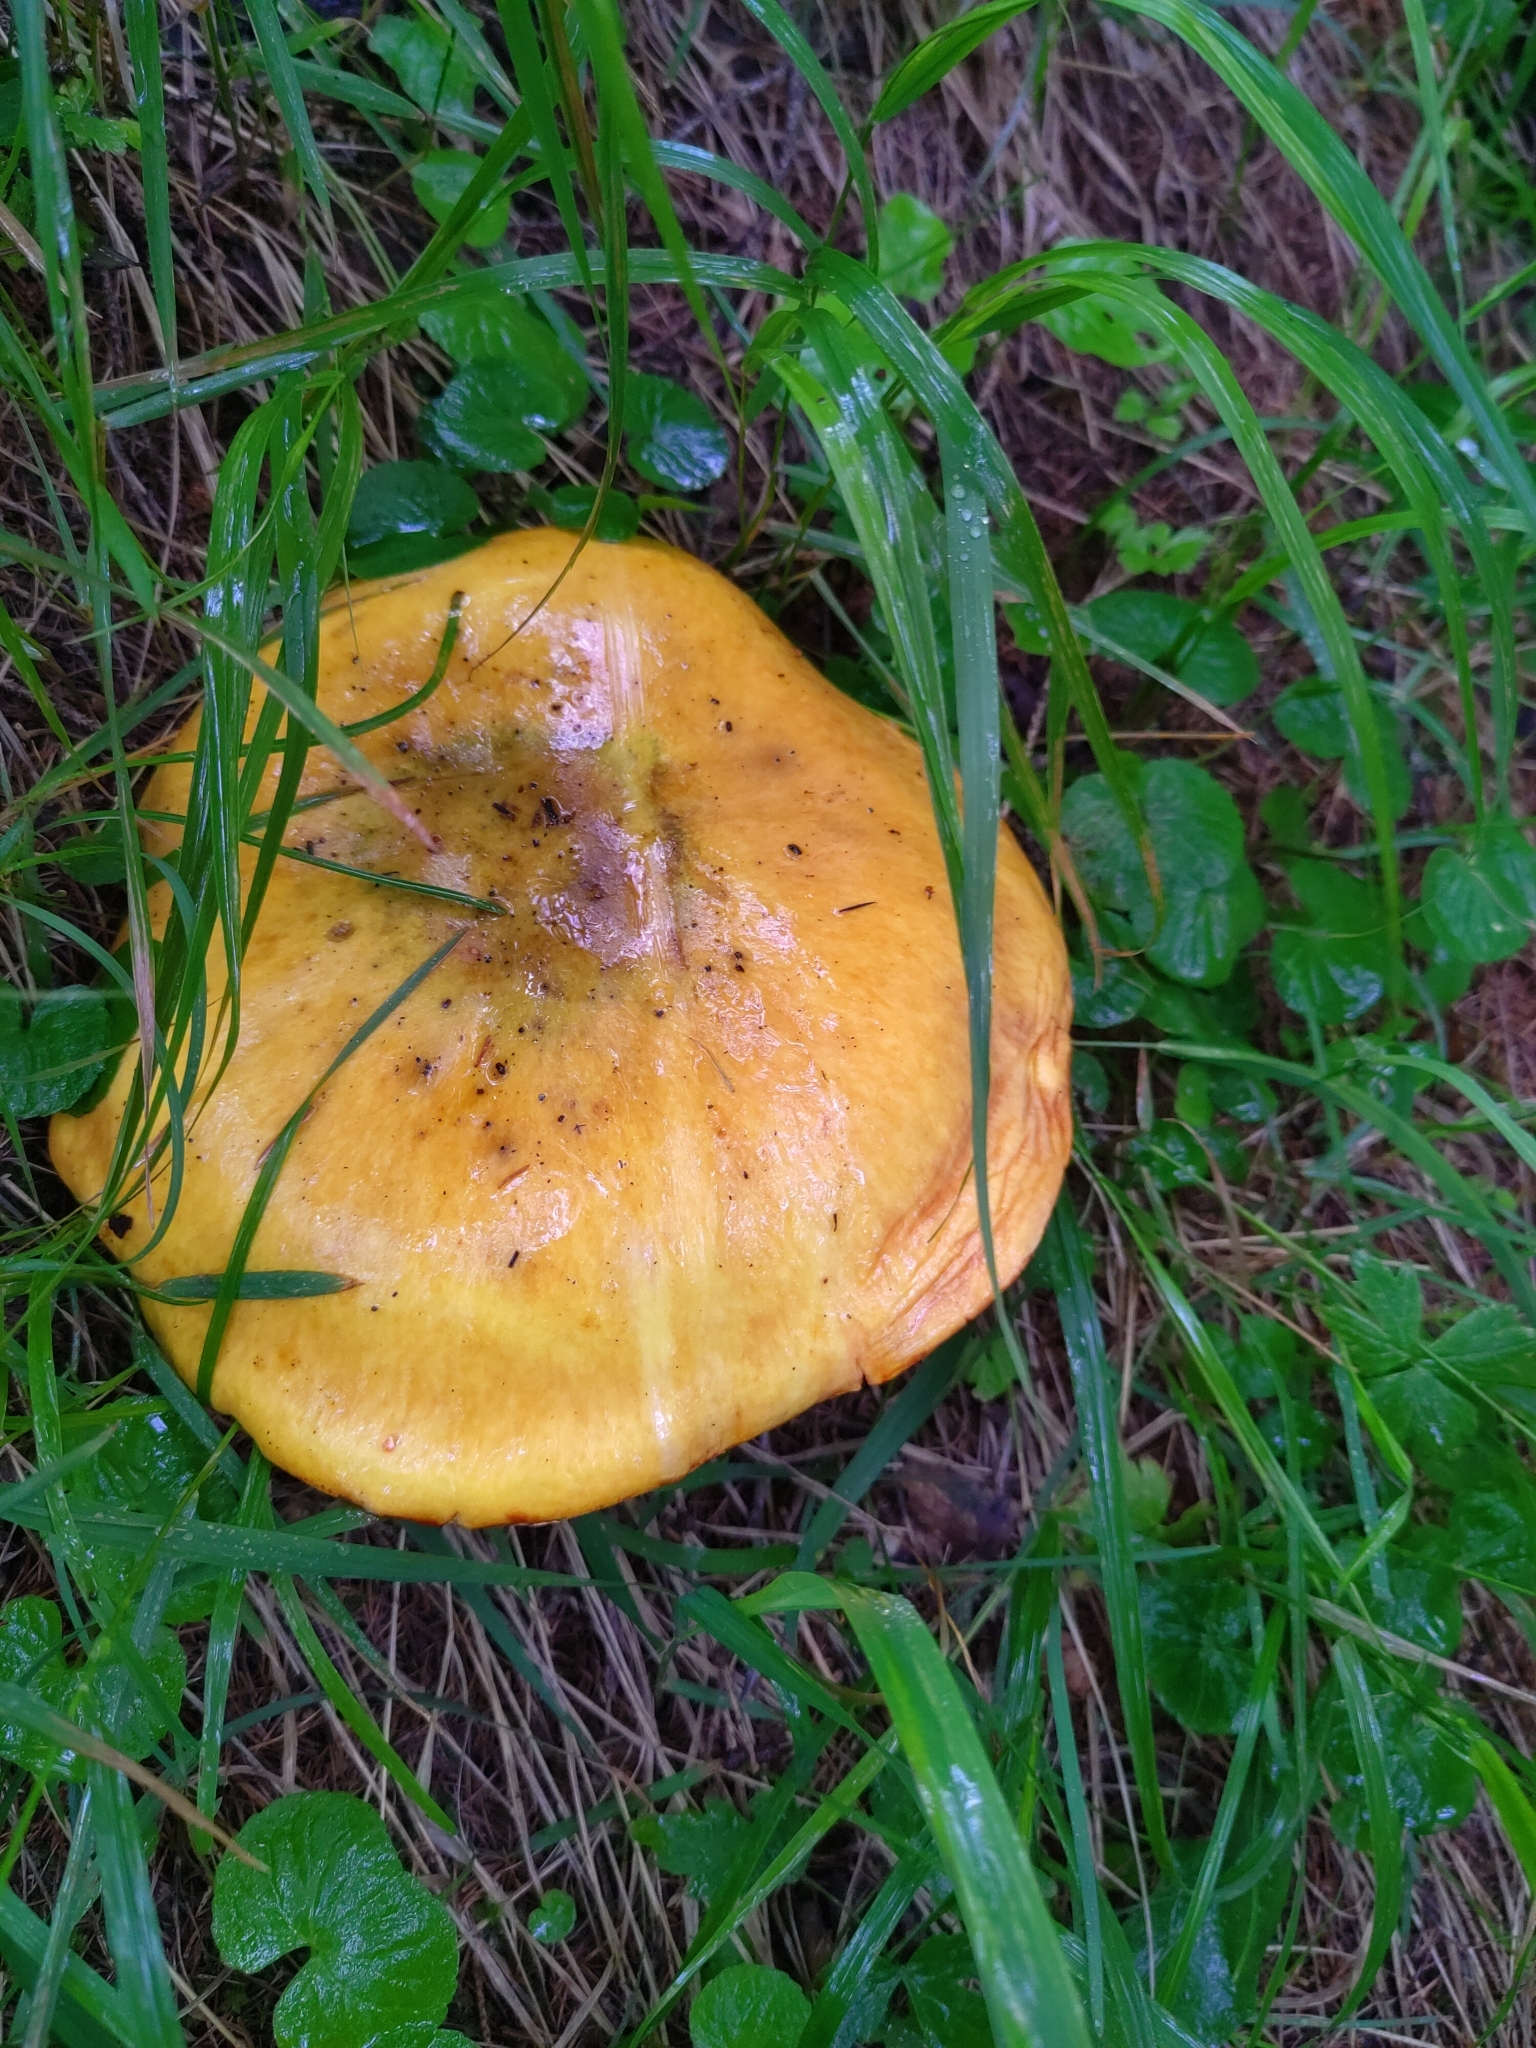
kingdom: Fungi
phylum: Basidiomycota
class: Agaricomycetes
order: Boletales
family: Suillaceae
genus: Suillus
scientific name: Suillus grevillei
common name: Larch bolete
